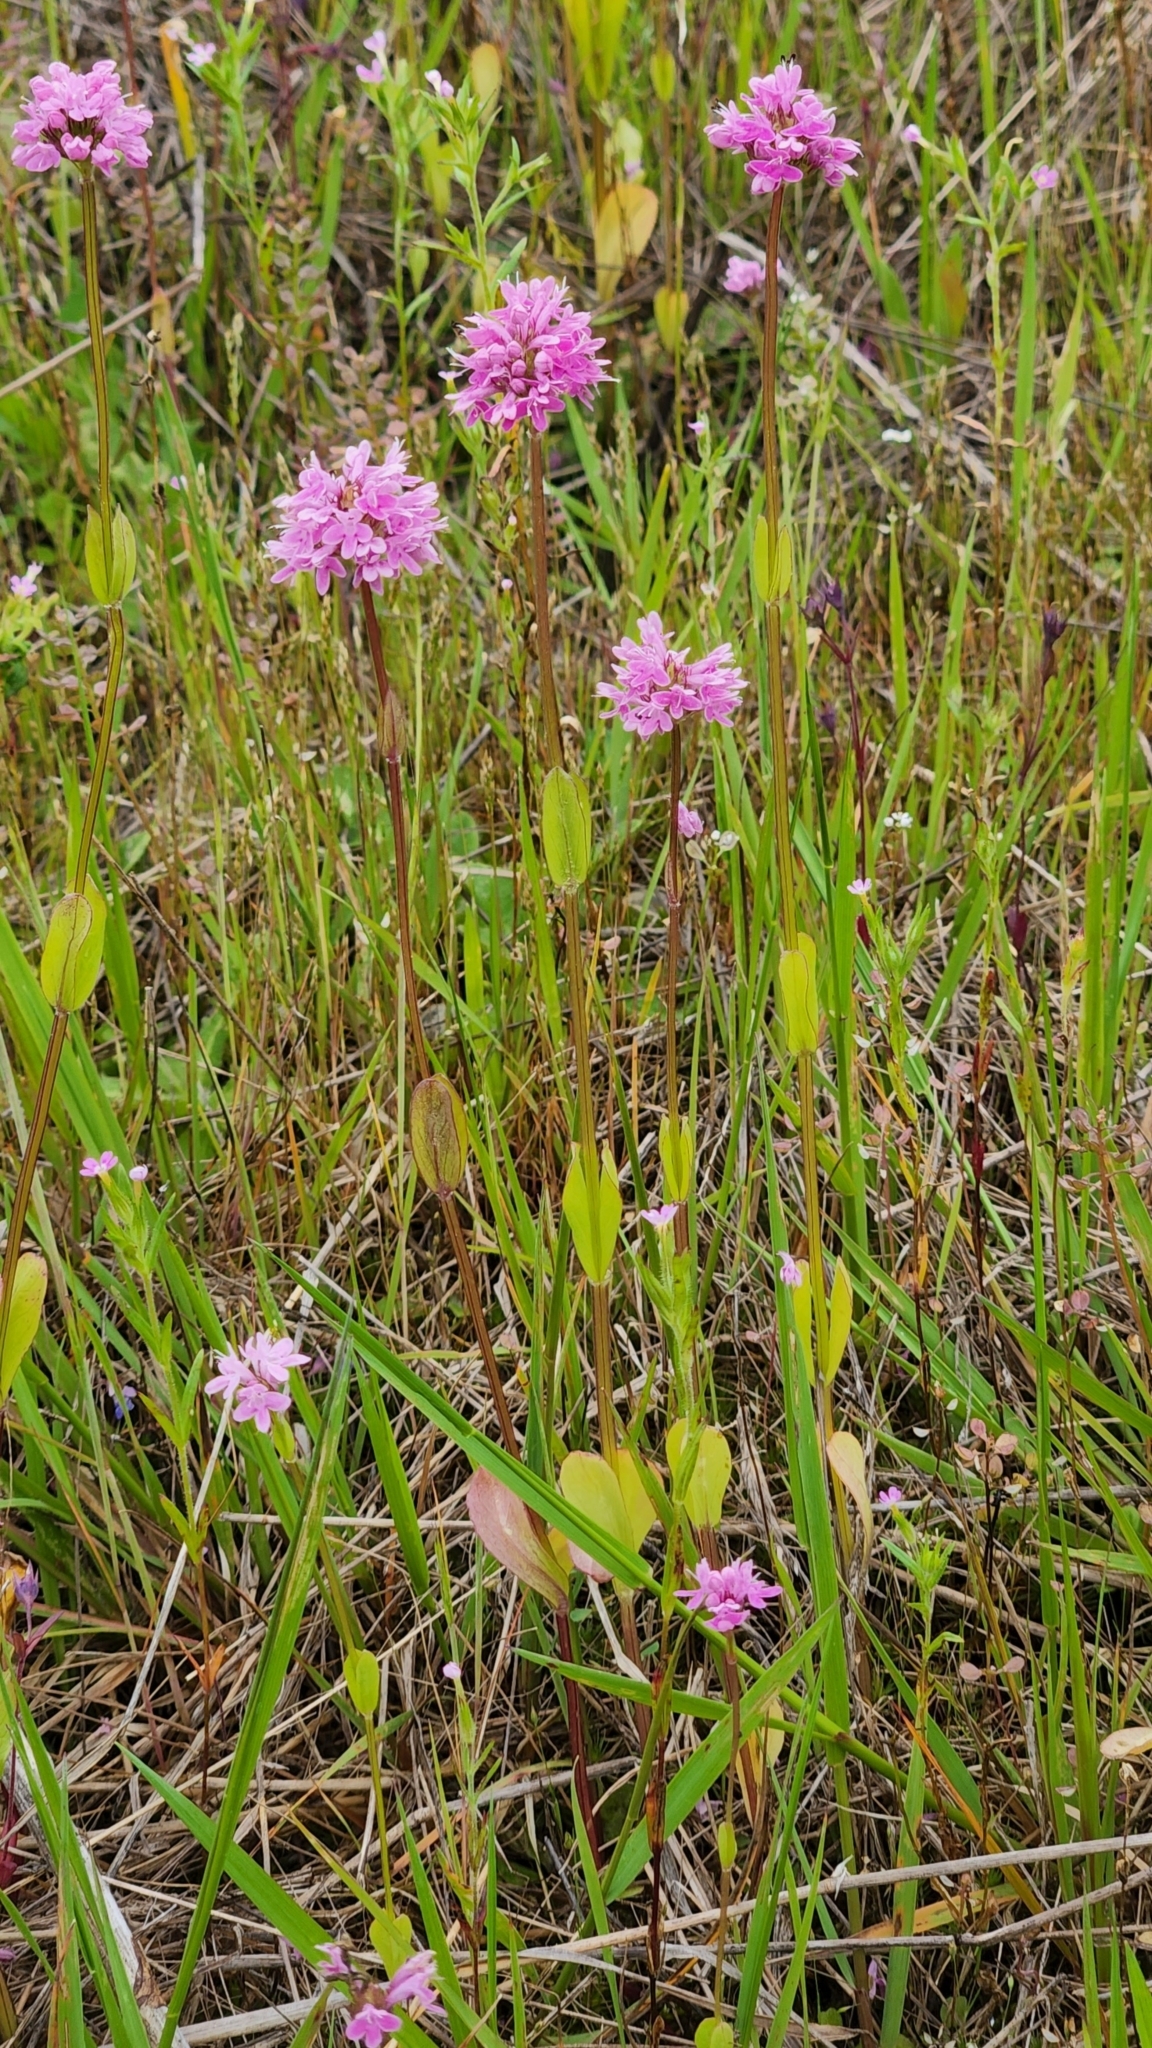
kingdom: Plantae
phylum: Tracheophyta
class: Magnoliopsida
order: Dipsacales
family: Caprifoliaceae
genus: Plectritis
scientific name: Plectritis congesta
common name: Pink plectritis
